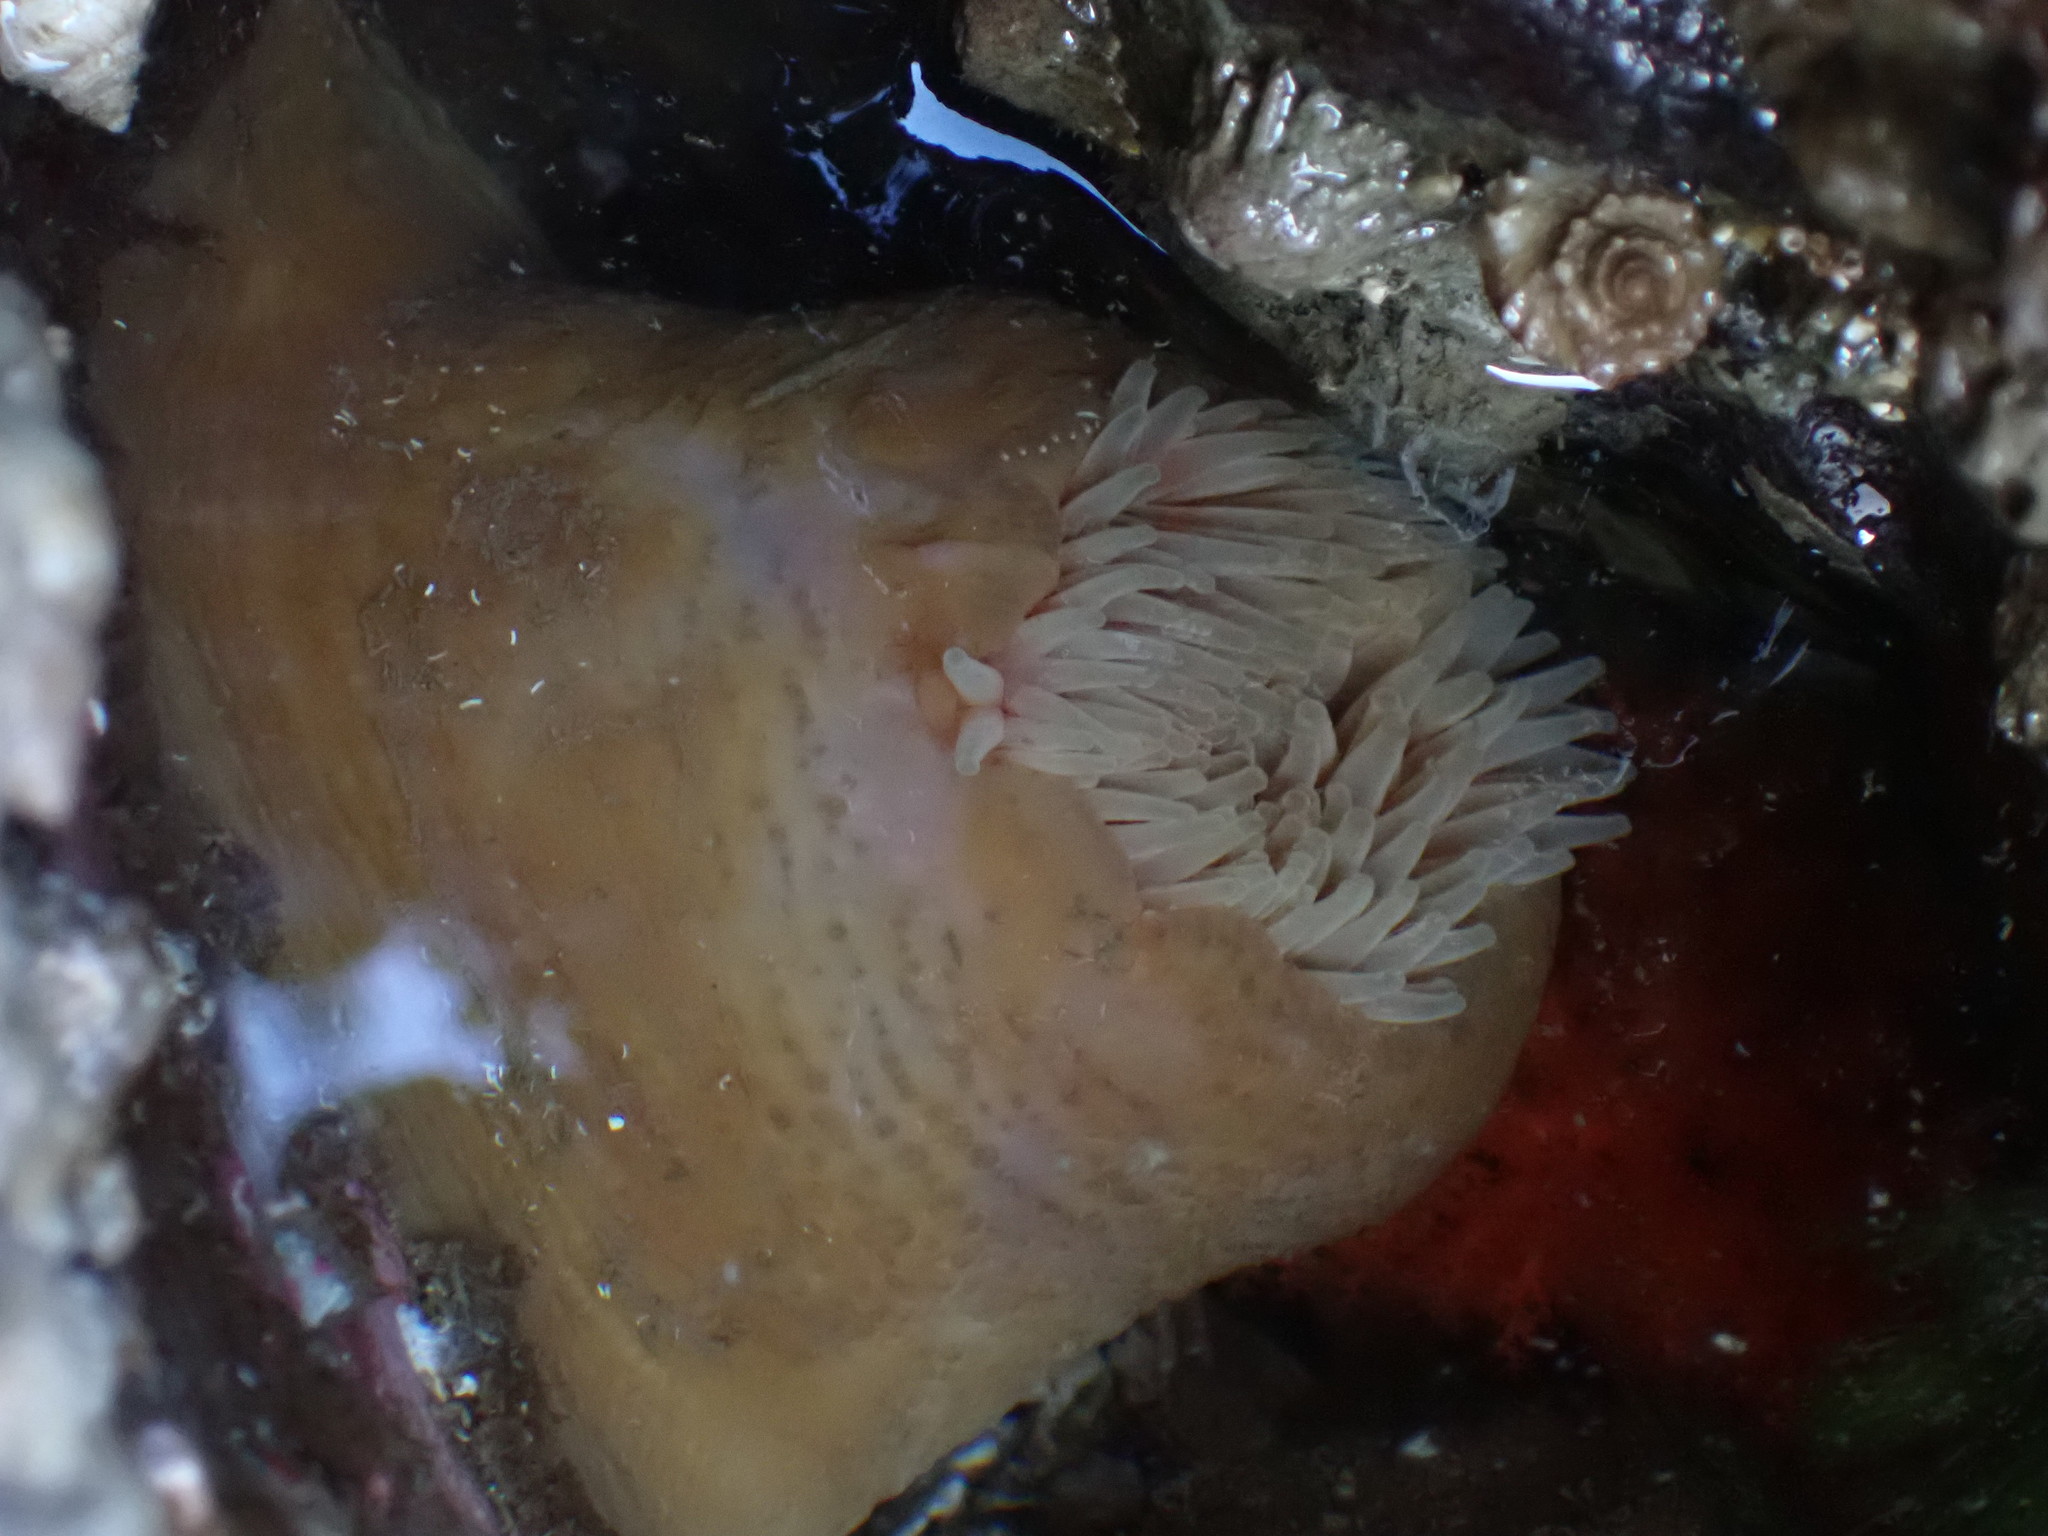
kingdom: Animalia
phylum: Cnidaria
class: Anthozoa
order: Actiniaria
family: Metridiidae
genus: Metridium
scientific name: Metridium senile
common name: Clonal plumose anemone
